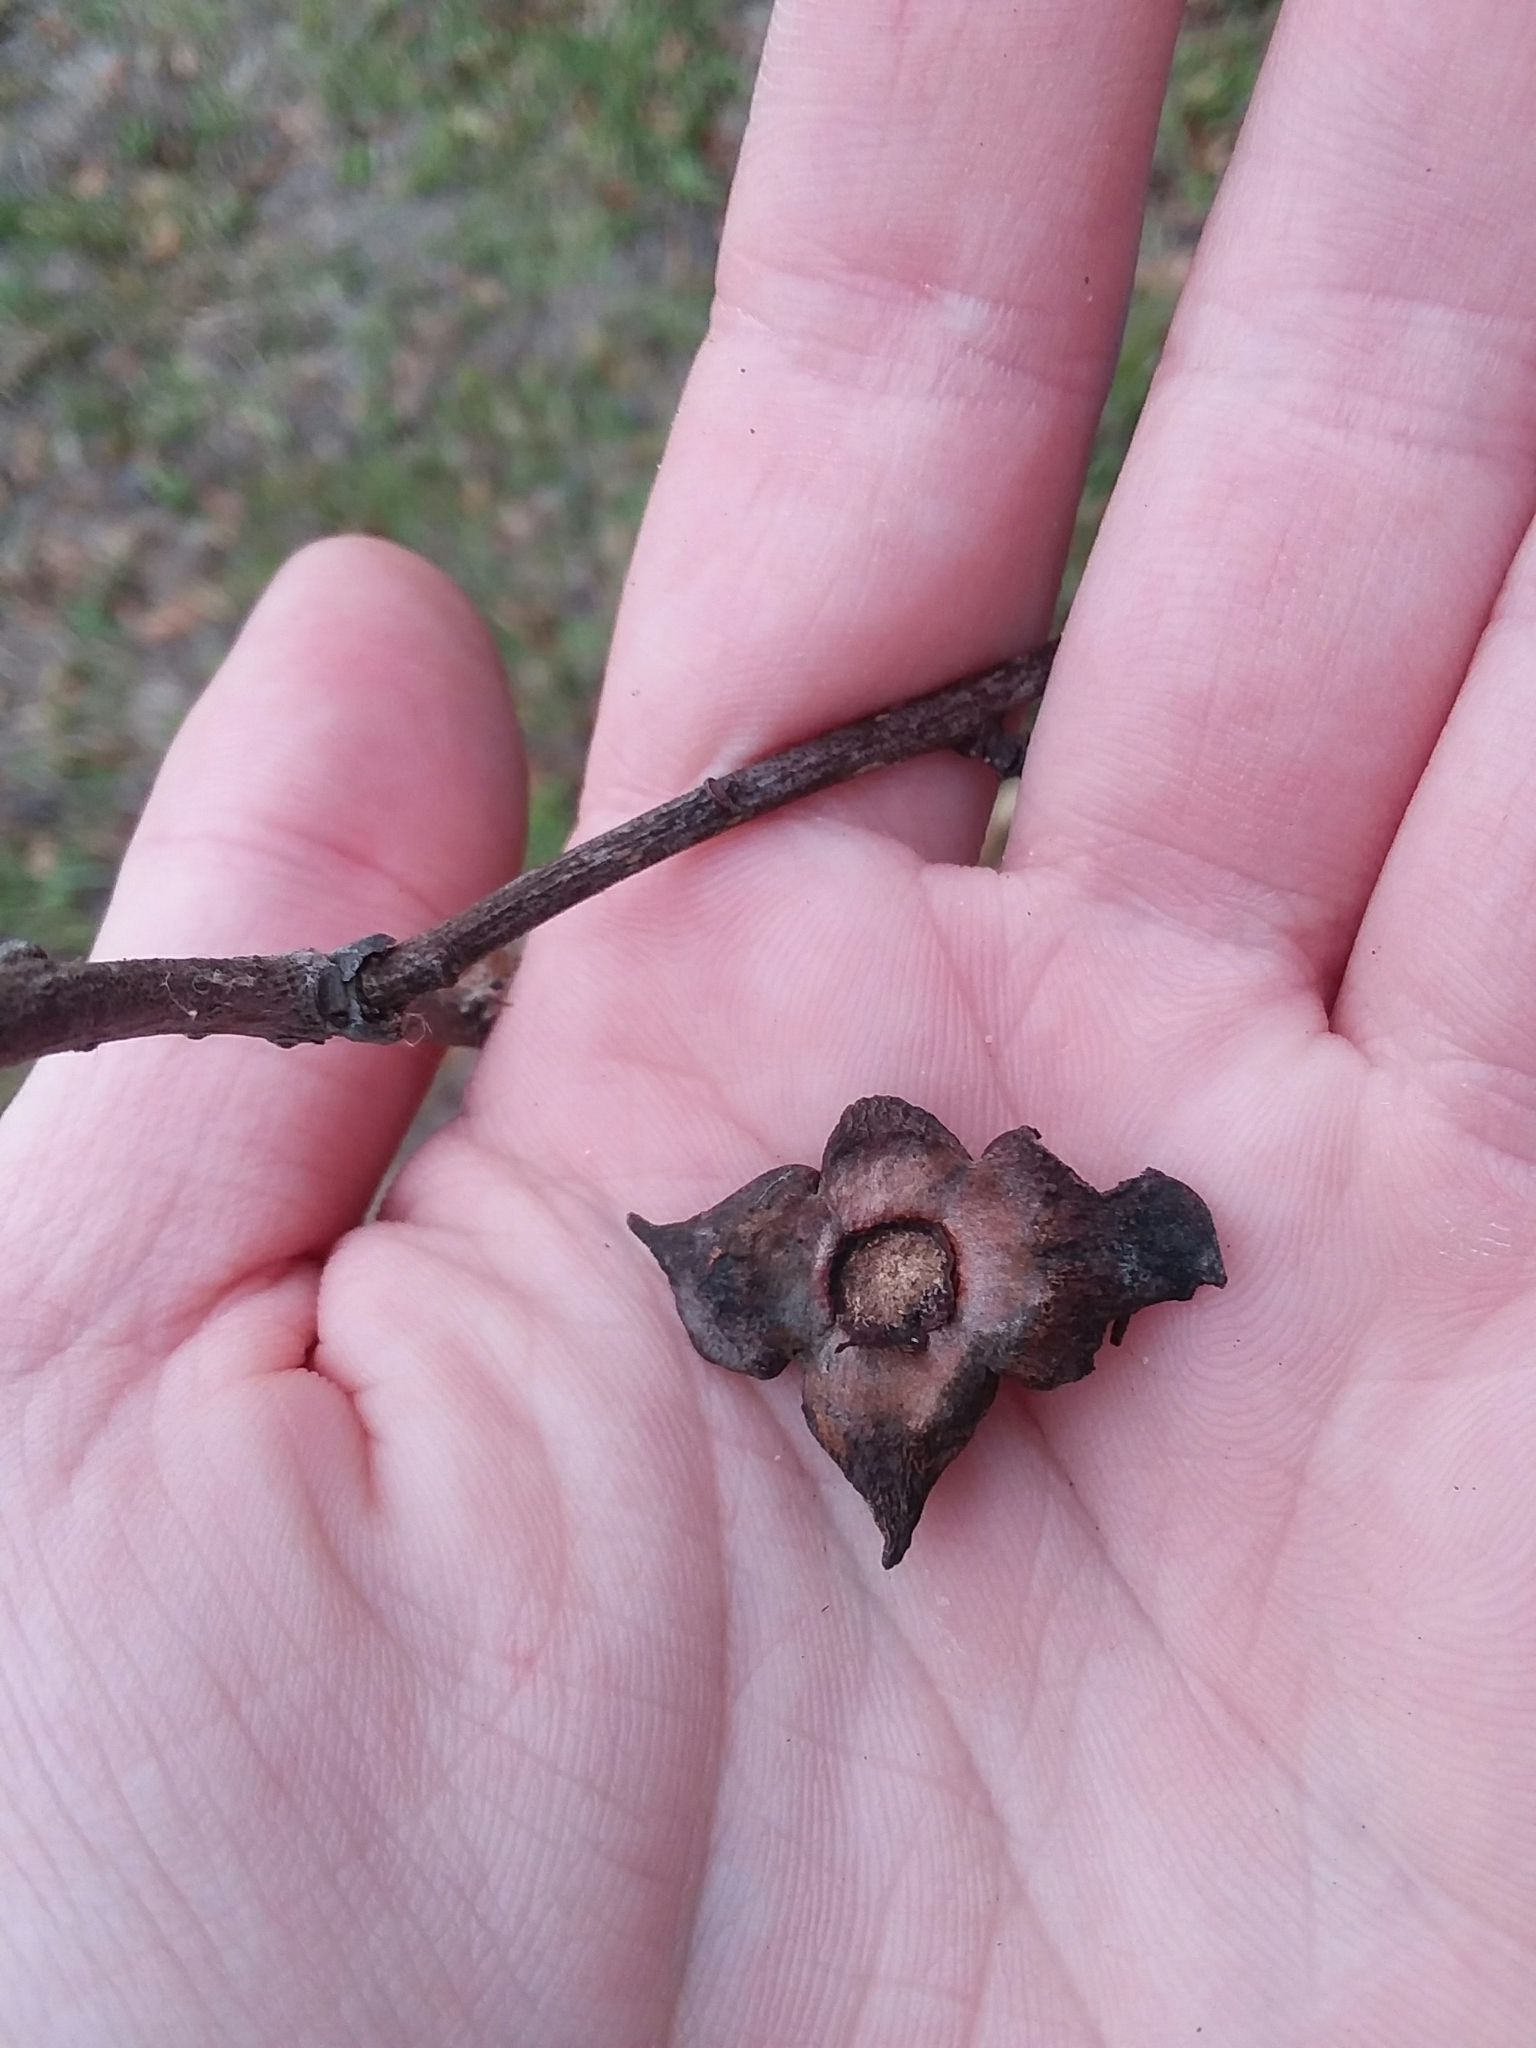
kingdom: Plantae
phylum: Tracheophyta
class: Magnoliopsida
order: Ericales
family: Ebenaceae
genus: Diospyros
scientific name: Diospyros virginiana
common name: Persimmon
